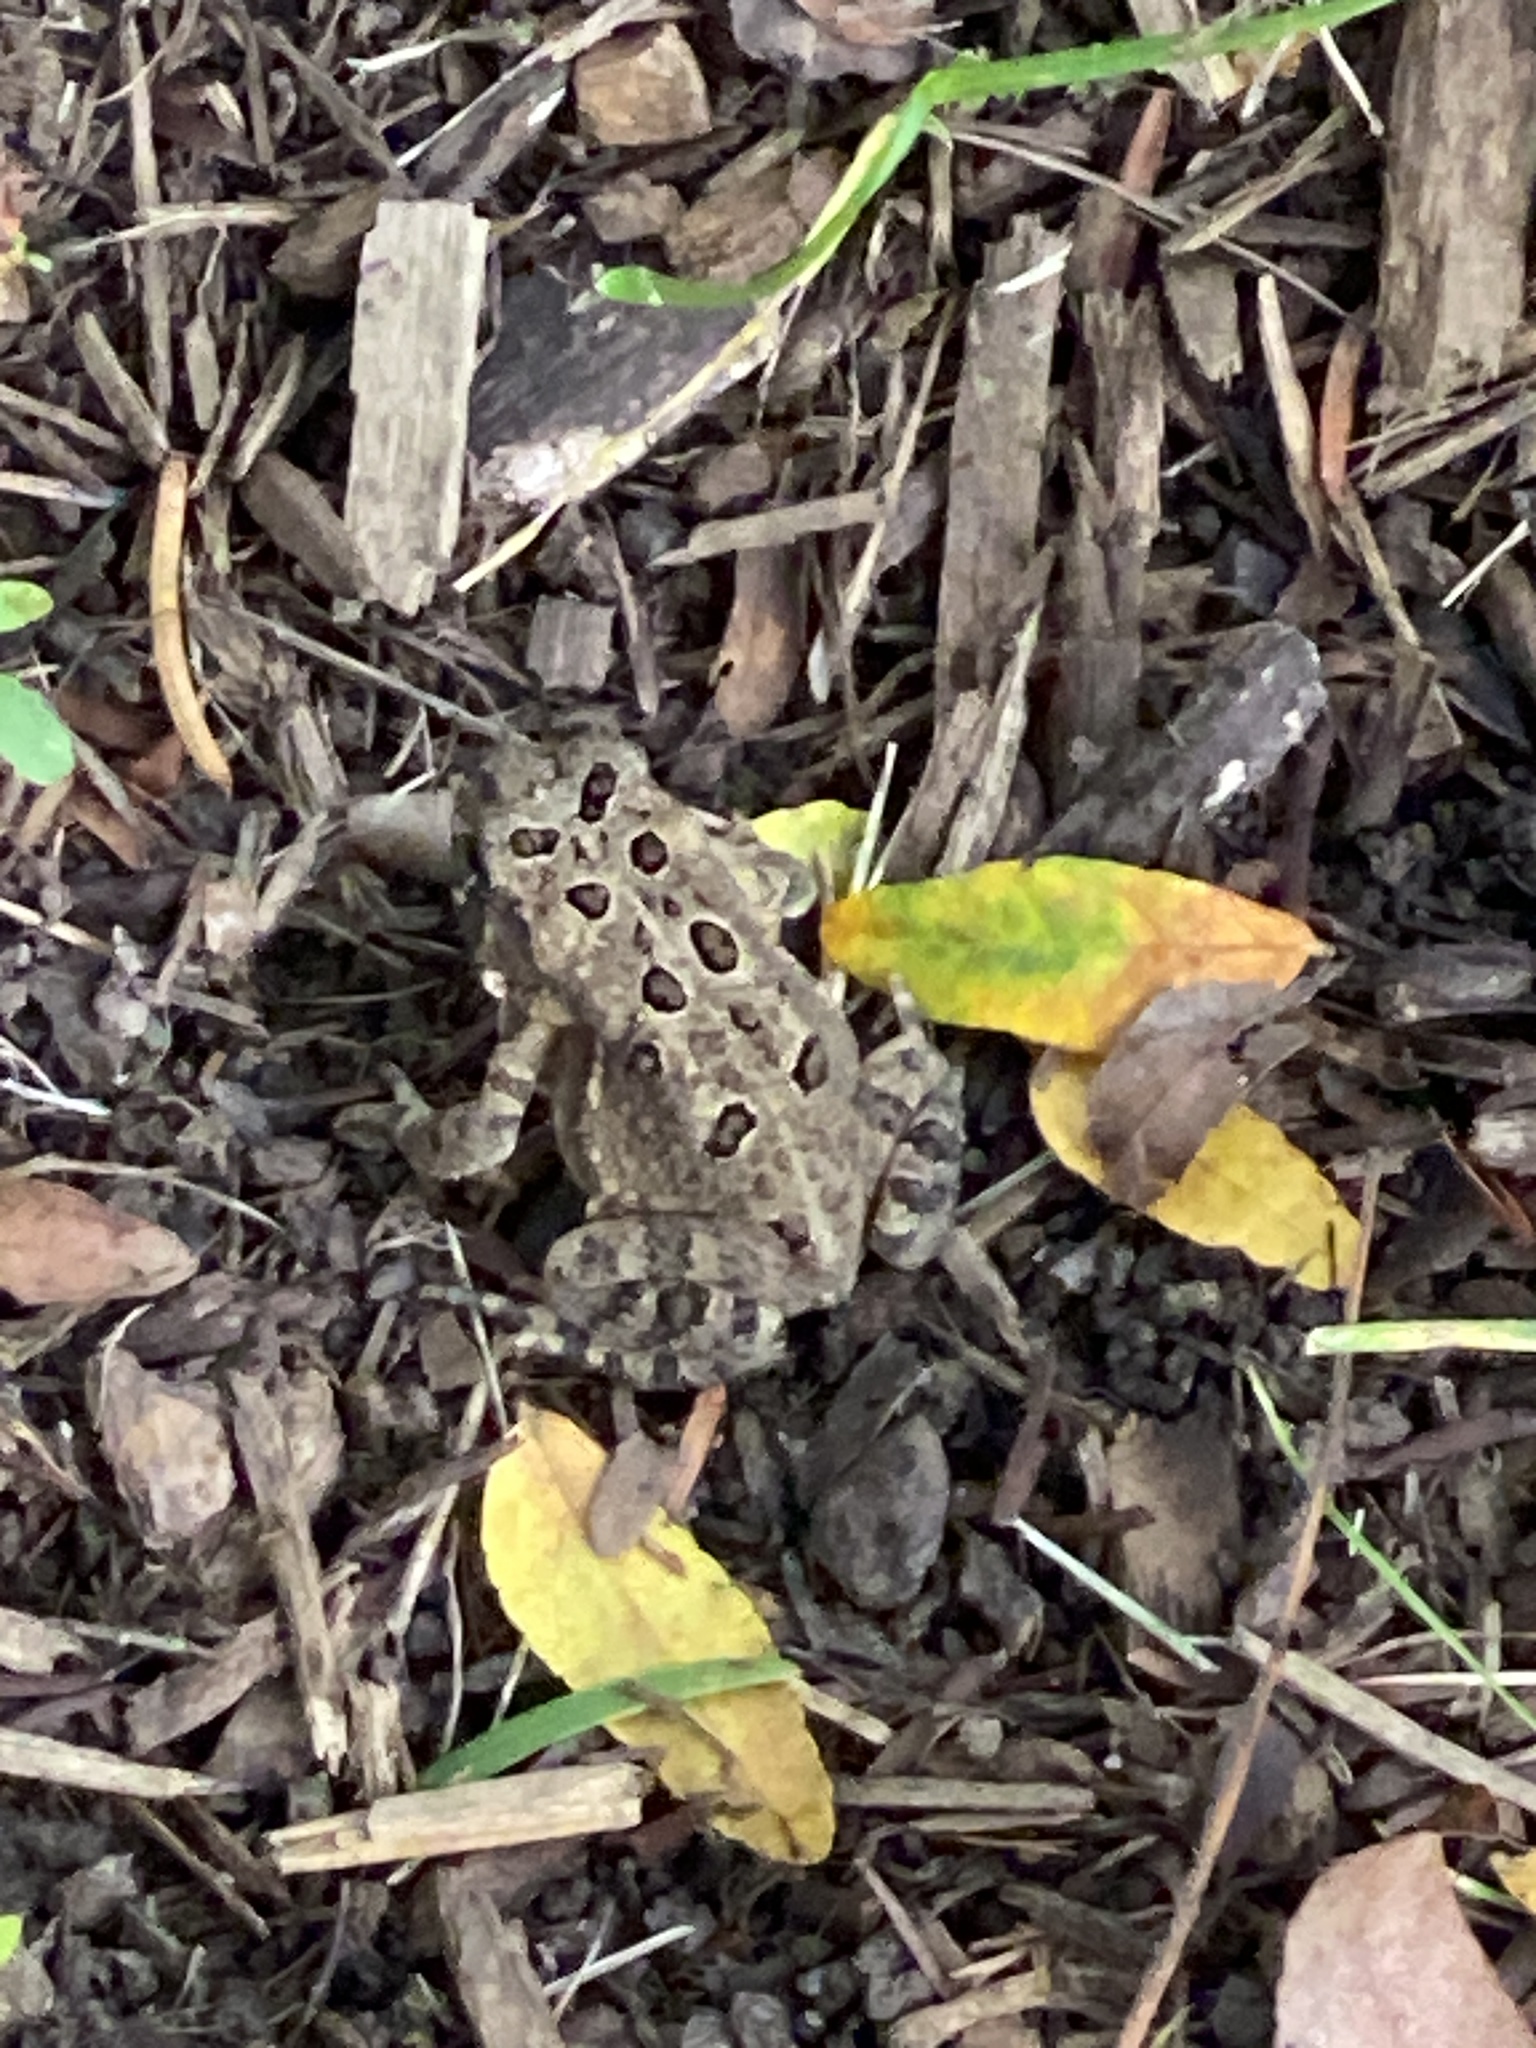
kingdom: Animalia
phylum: Chordata
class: Amphibia
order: Anura
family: Bufonidae
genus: Anaxyrus
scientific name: Anaxyrus americanus
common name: American toad
